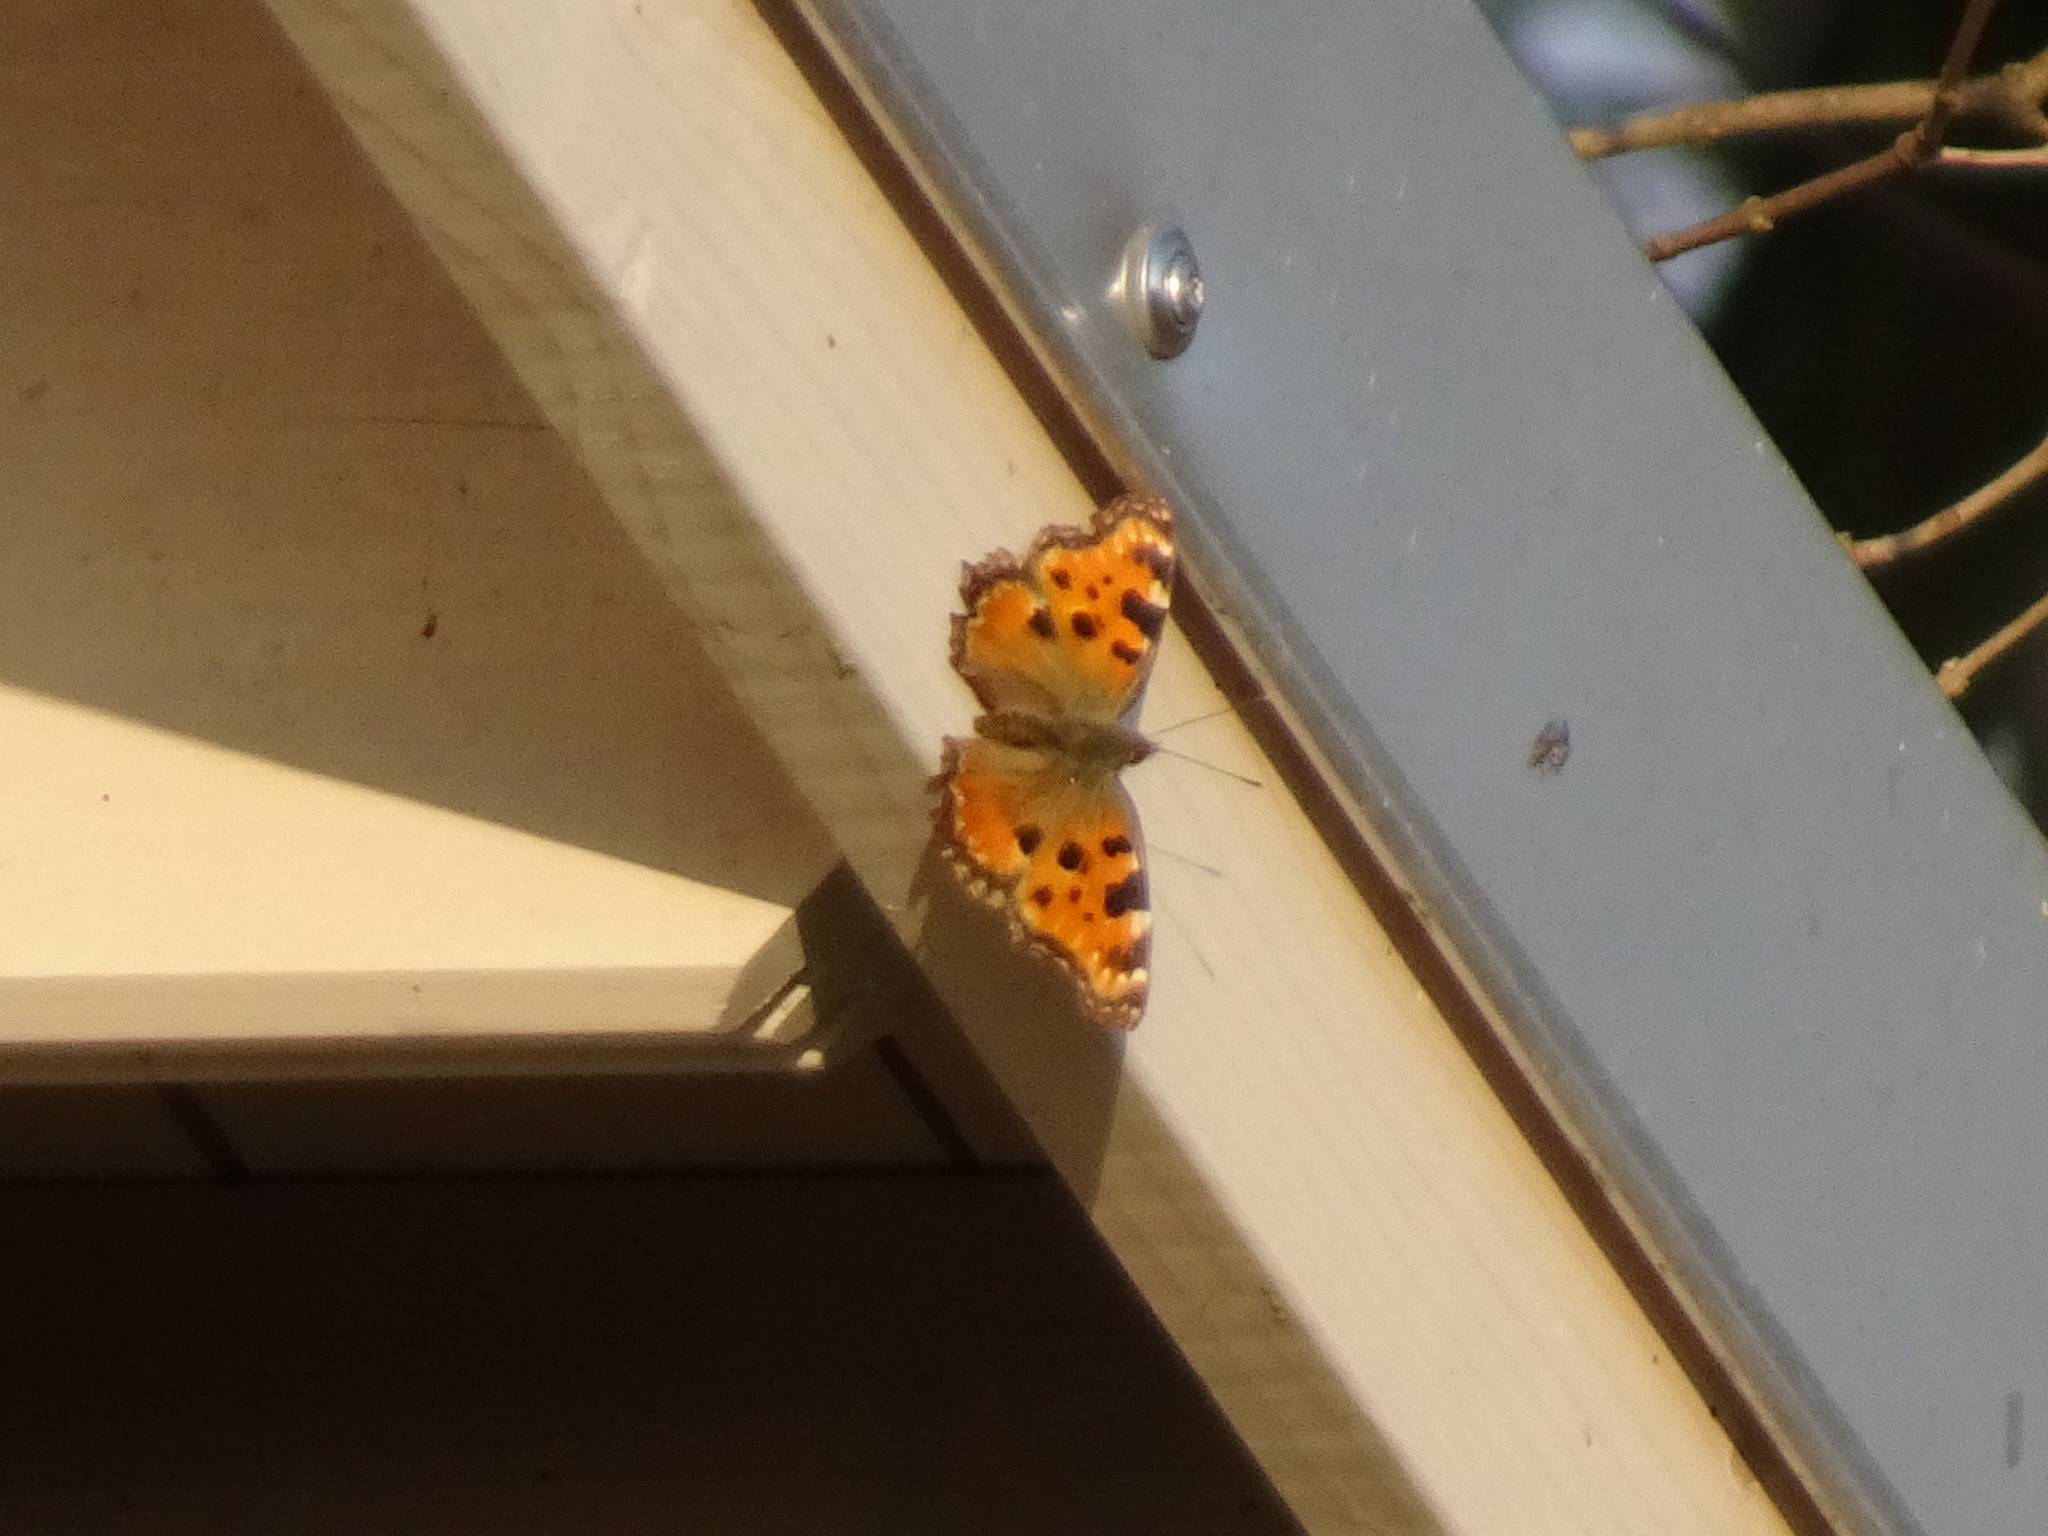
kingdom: Animalia
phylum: Arthropoda
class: Insecta
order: Lepidoptera
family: Nymphalidae
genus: Nymphalis
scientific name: Nymphalis polychloros
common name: Large tortoiseshell
